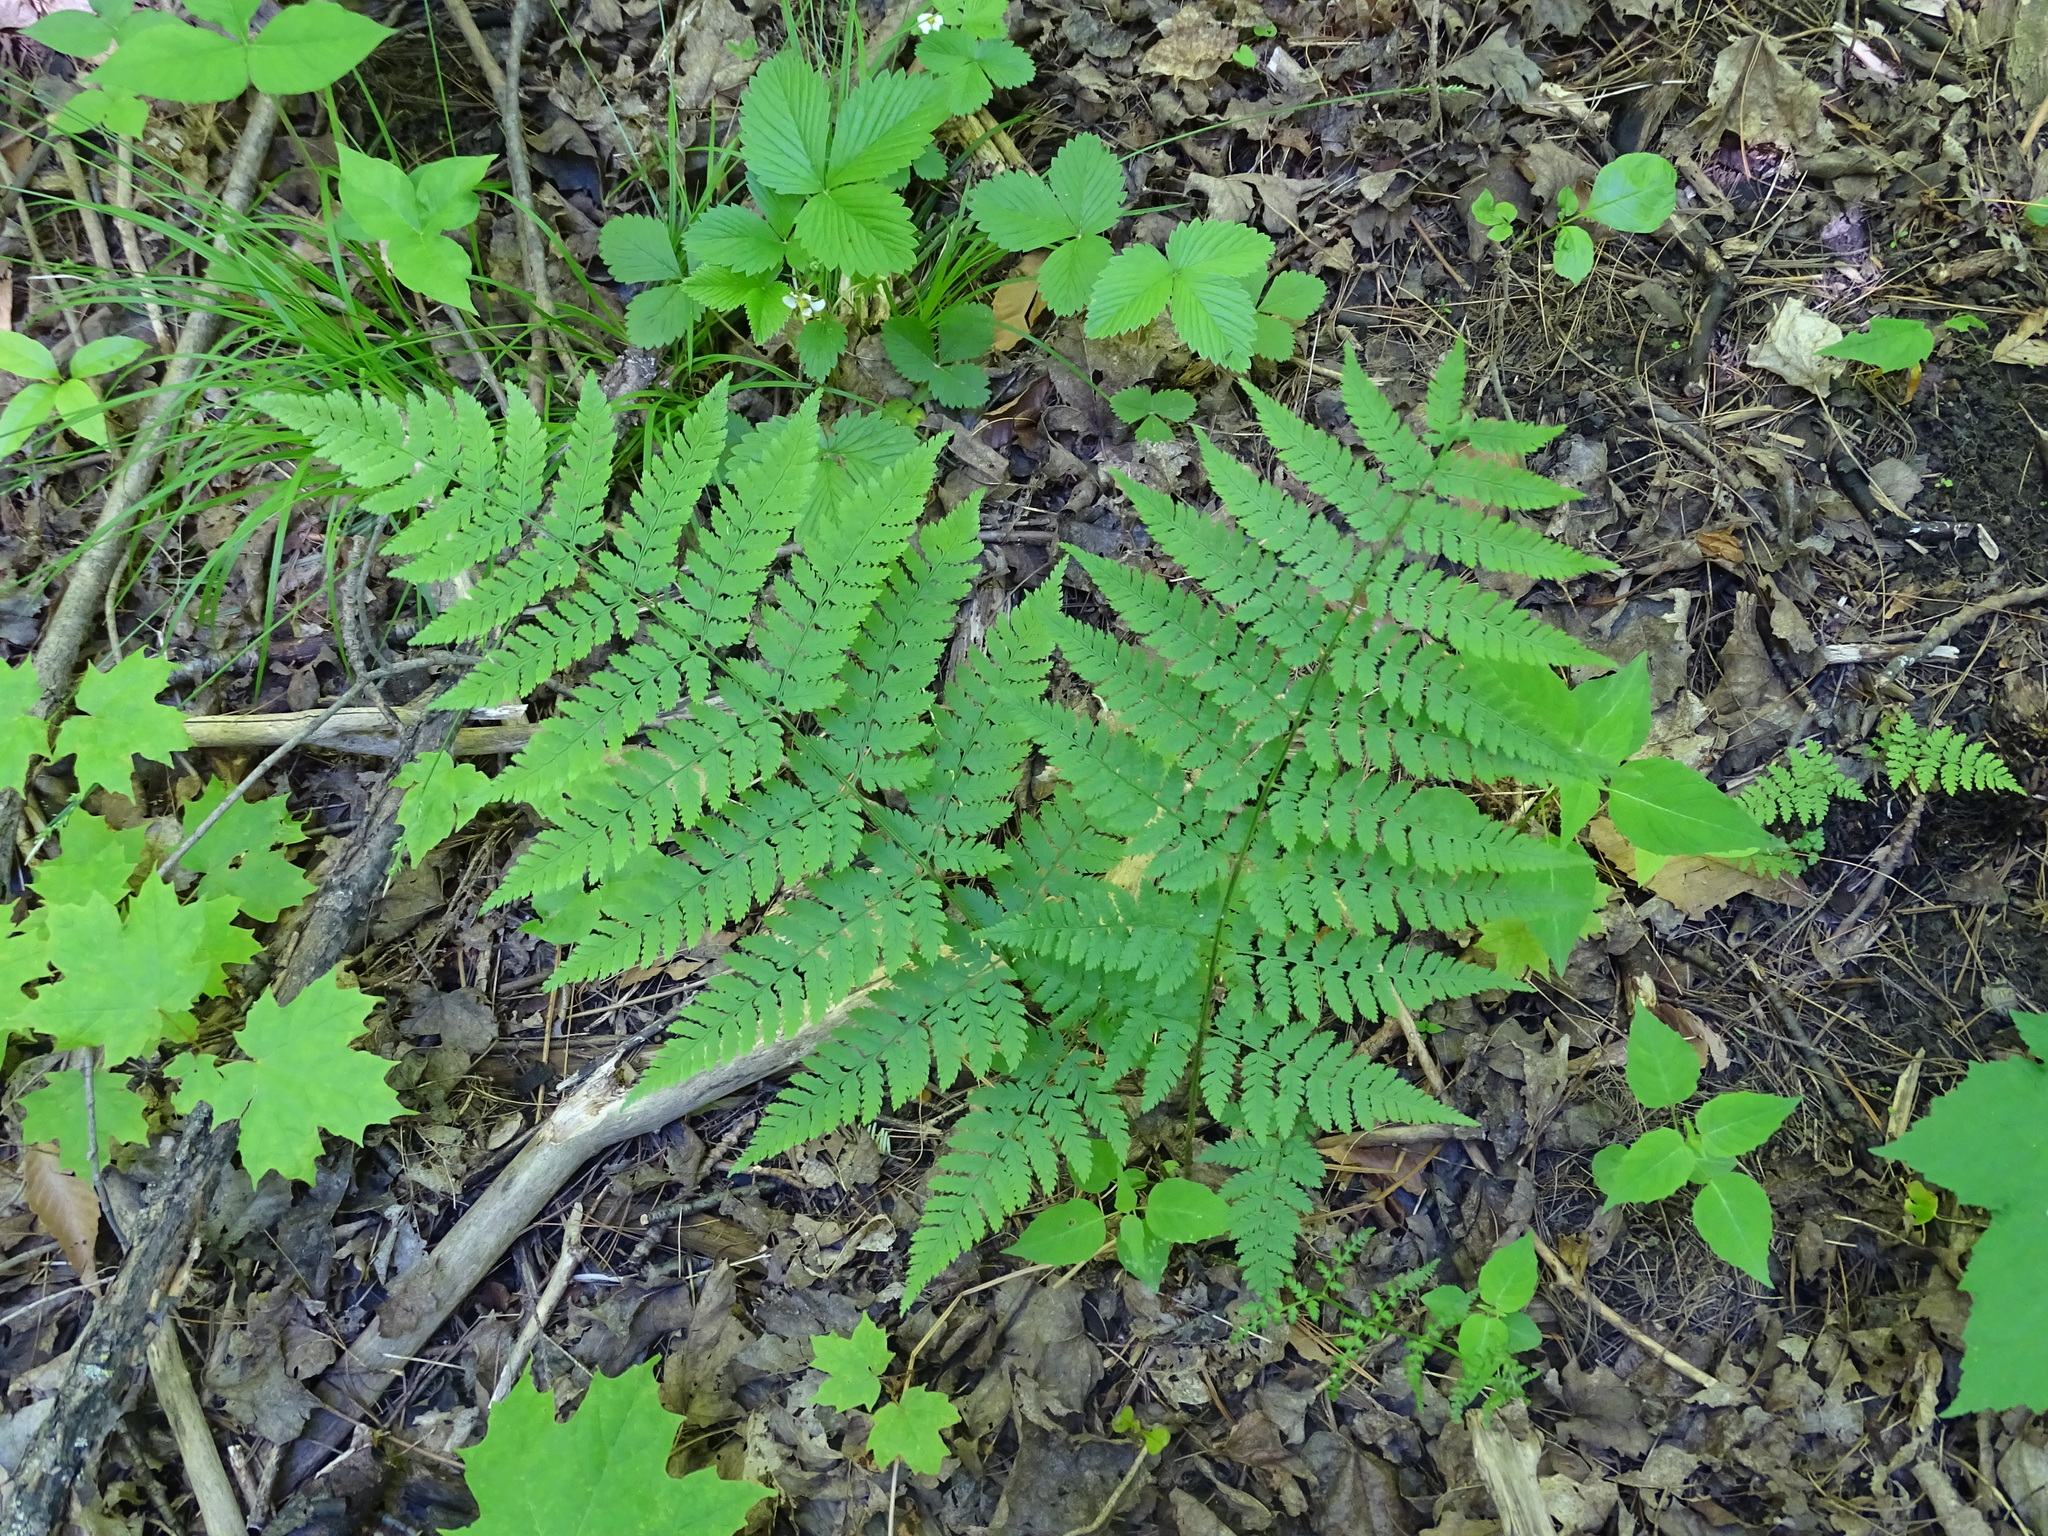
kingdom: Plantae
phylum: Tracheophyta
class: Polypodiopsida
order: Polypodiales
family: Dryopteridaceae
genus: Dryopteris
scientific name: Dryopteris intermedia
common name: Evergreen wood fern
